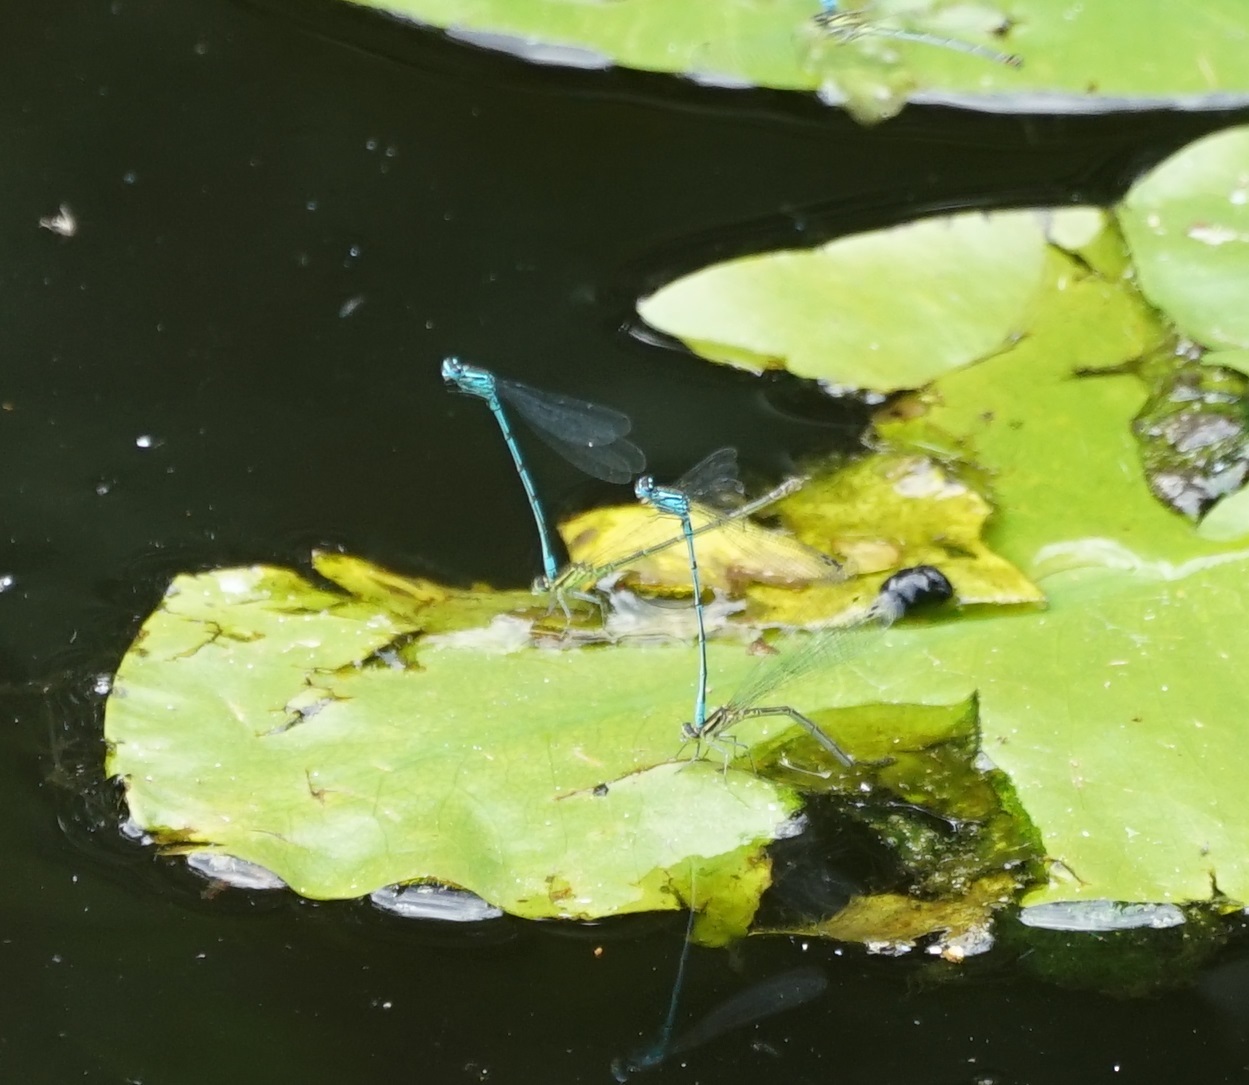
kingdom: Animalia
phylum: Arthropoda
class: Insecta
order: Odonata
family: Coenagrionidae
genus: Coenagrion
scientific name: Coenagrion puella
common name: Azure damselfly
